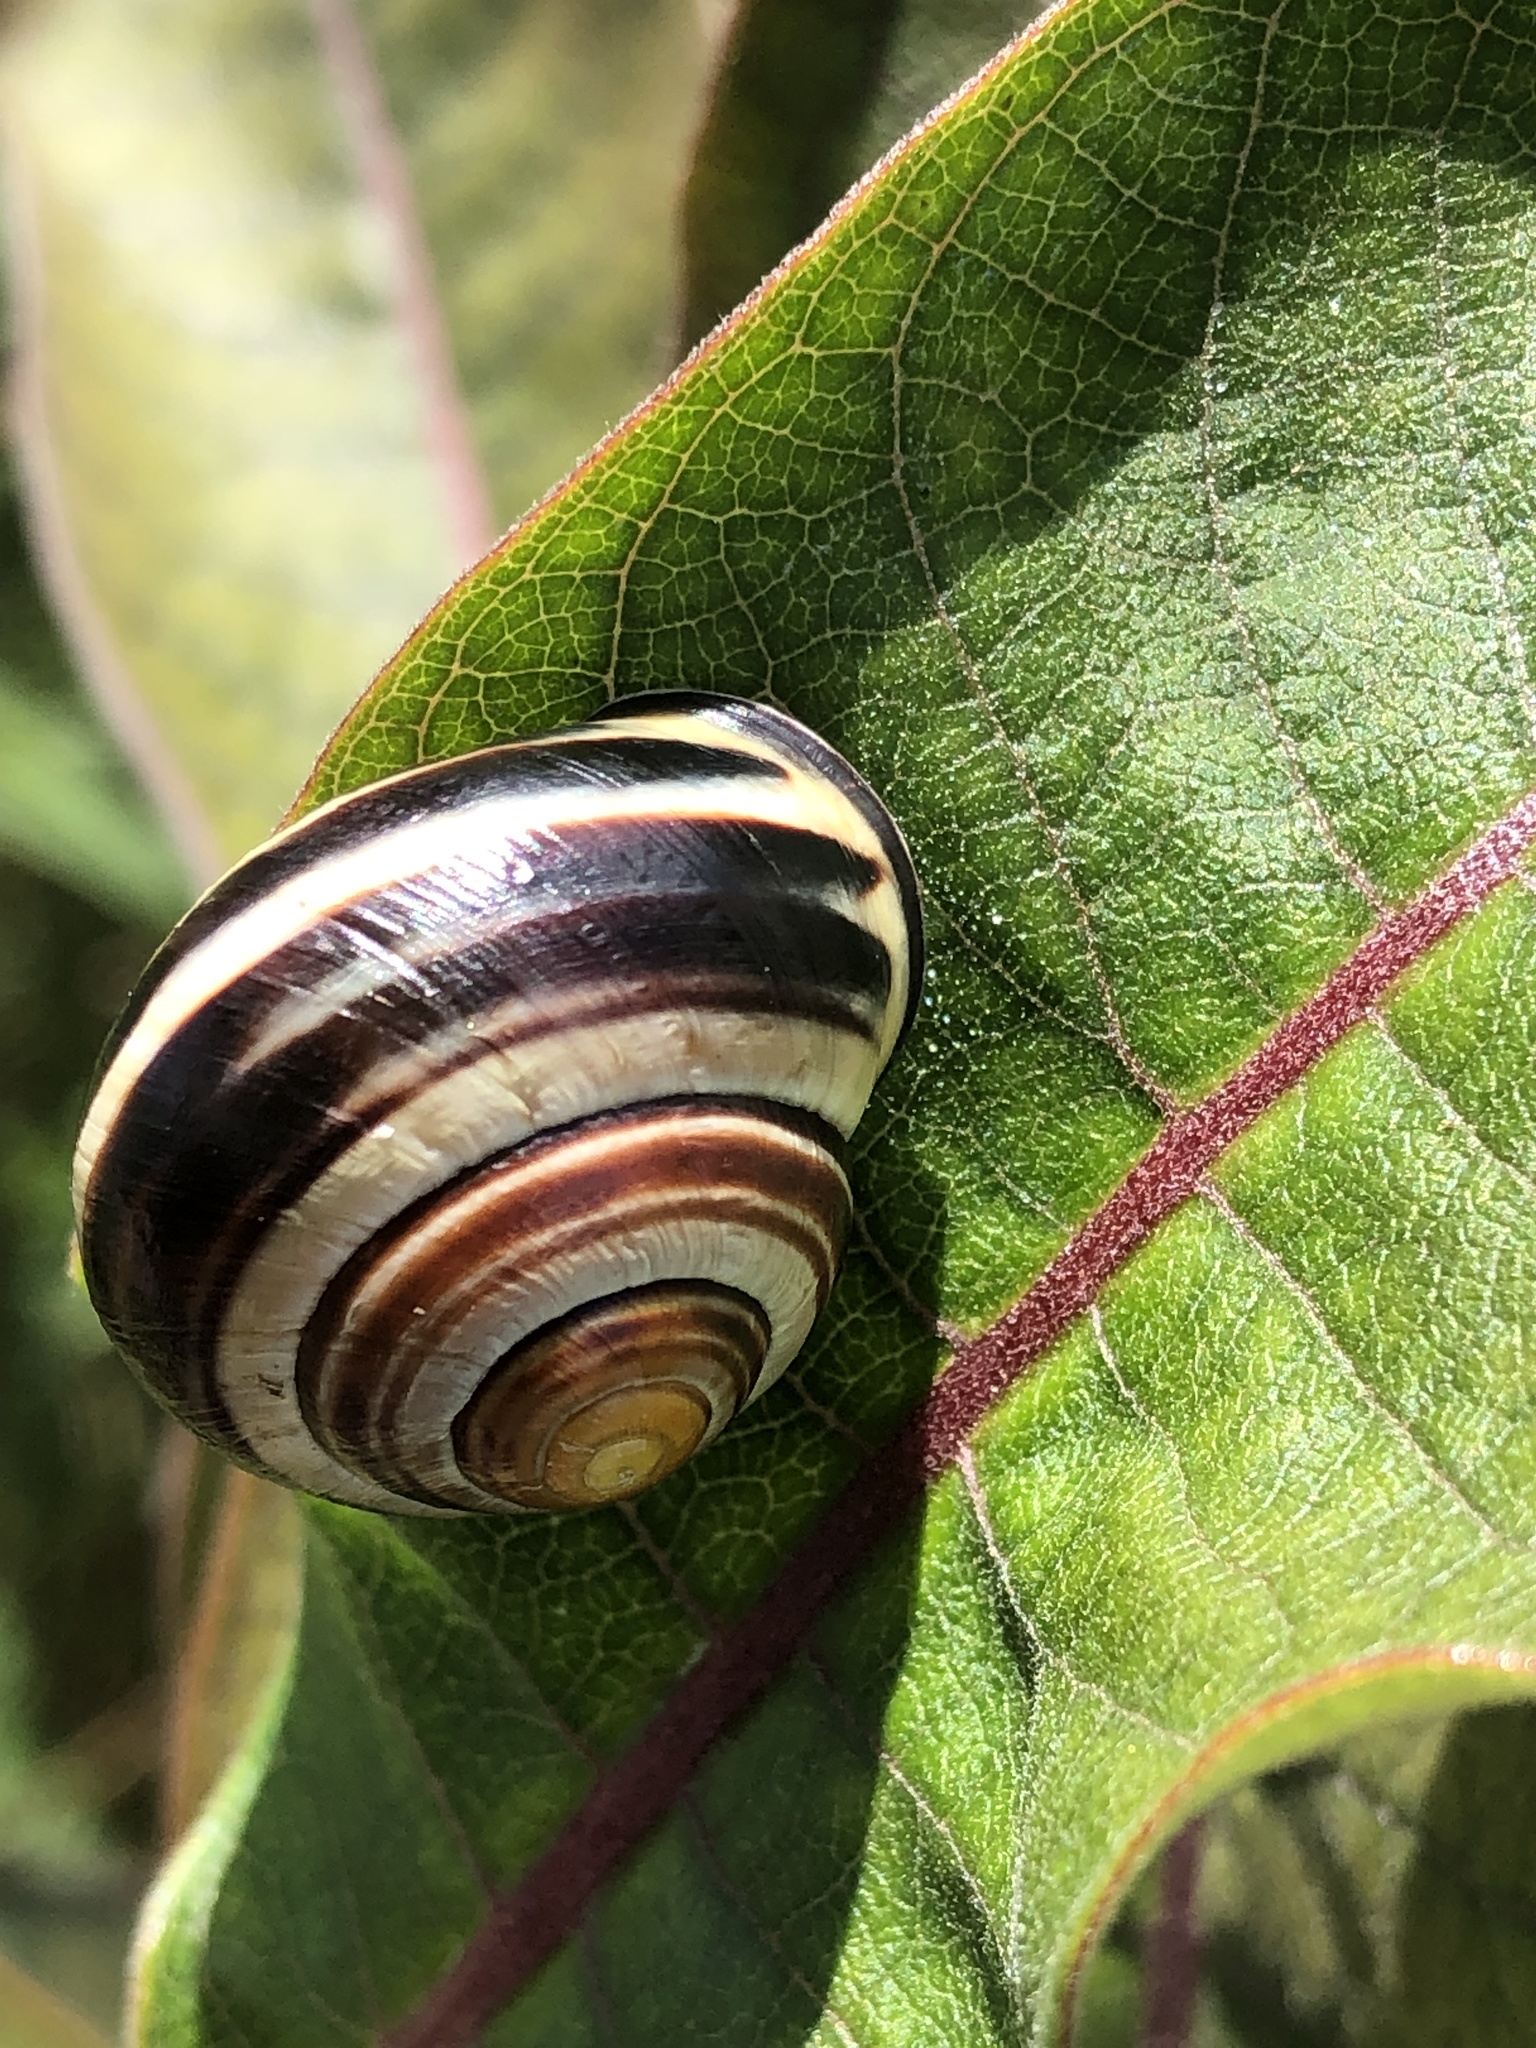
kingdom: Animalia
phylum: Mollusca
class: Gastropoda
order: Stylommatophora
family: Helicidae
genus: Cepaea
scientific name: Cepaea nemoralis
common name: Grovesnail
